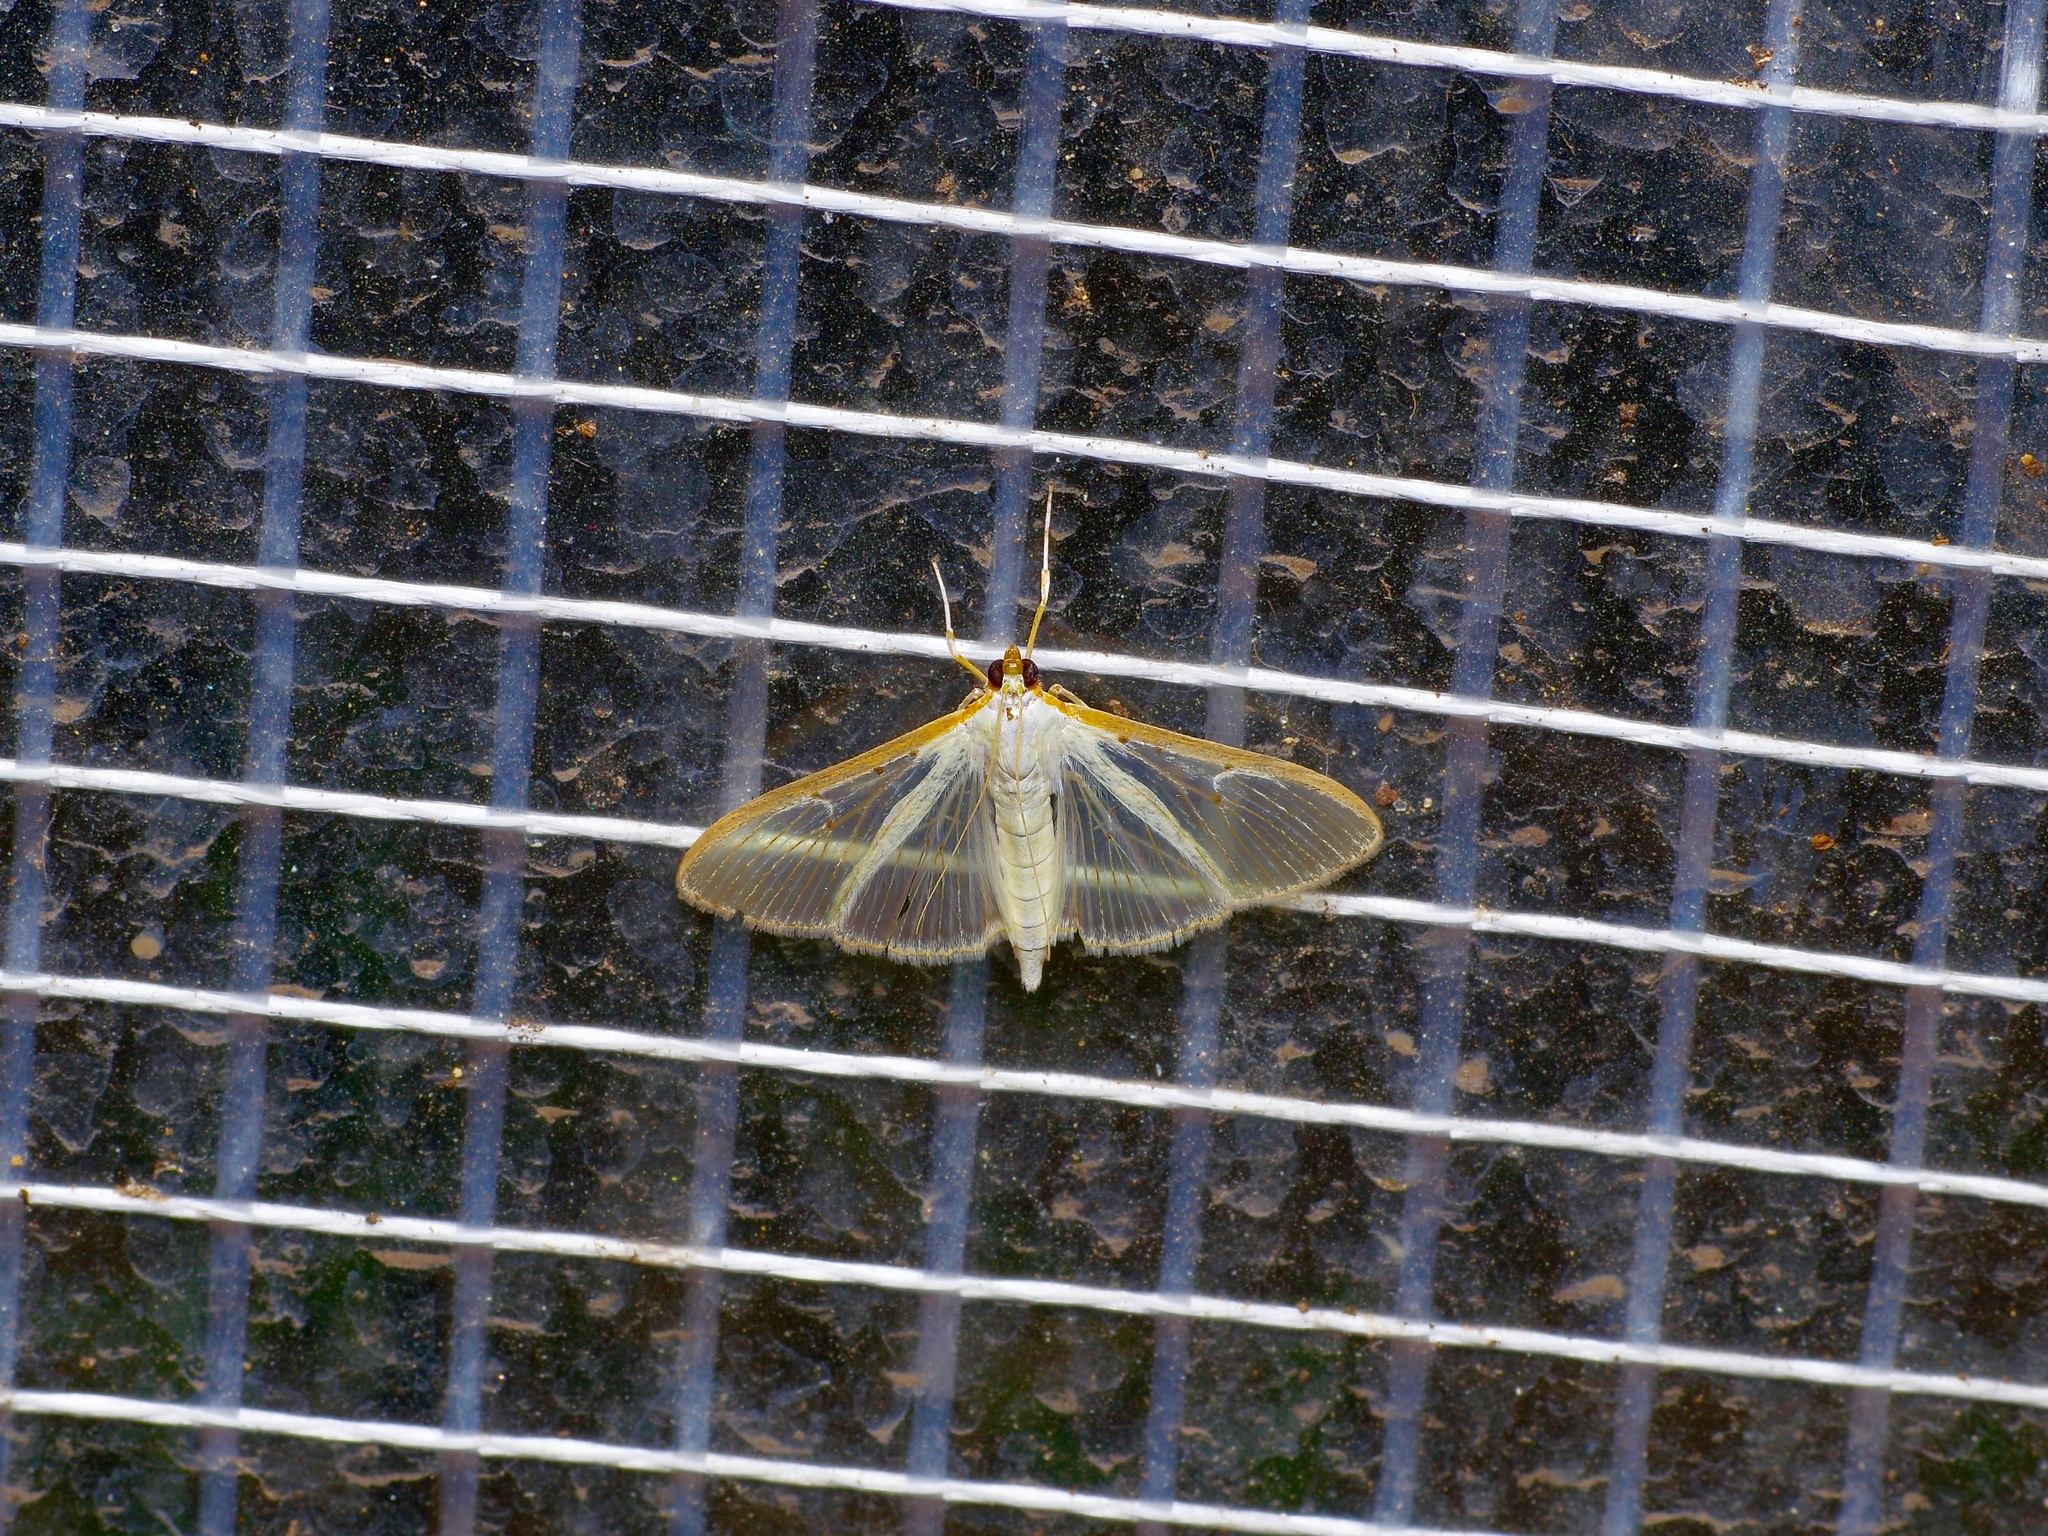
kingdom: Animalia
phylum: Arthropoda
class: Insecta
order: Lepidoptera
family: Crambidae
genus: Palpita
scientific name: Palpita quadristigmalis
